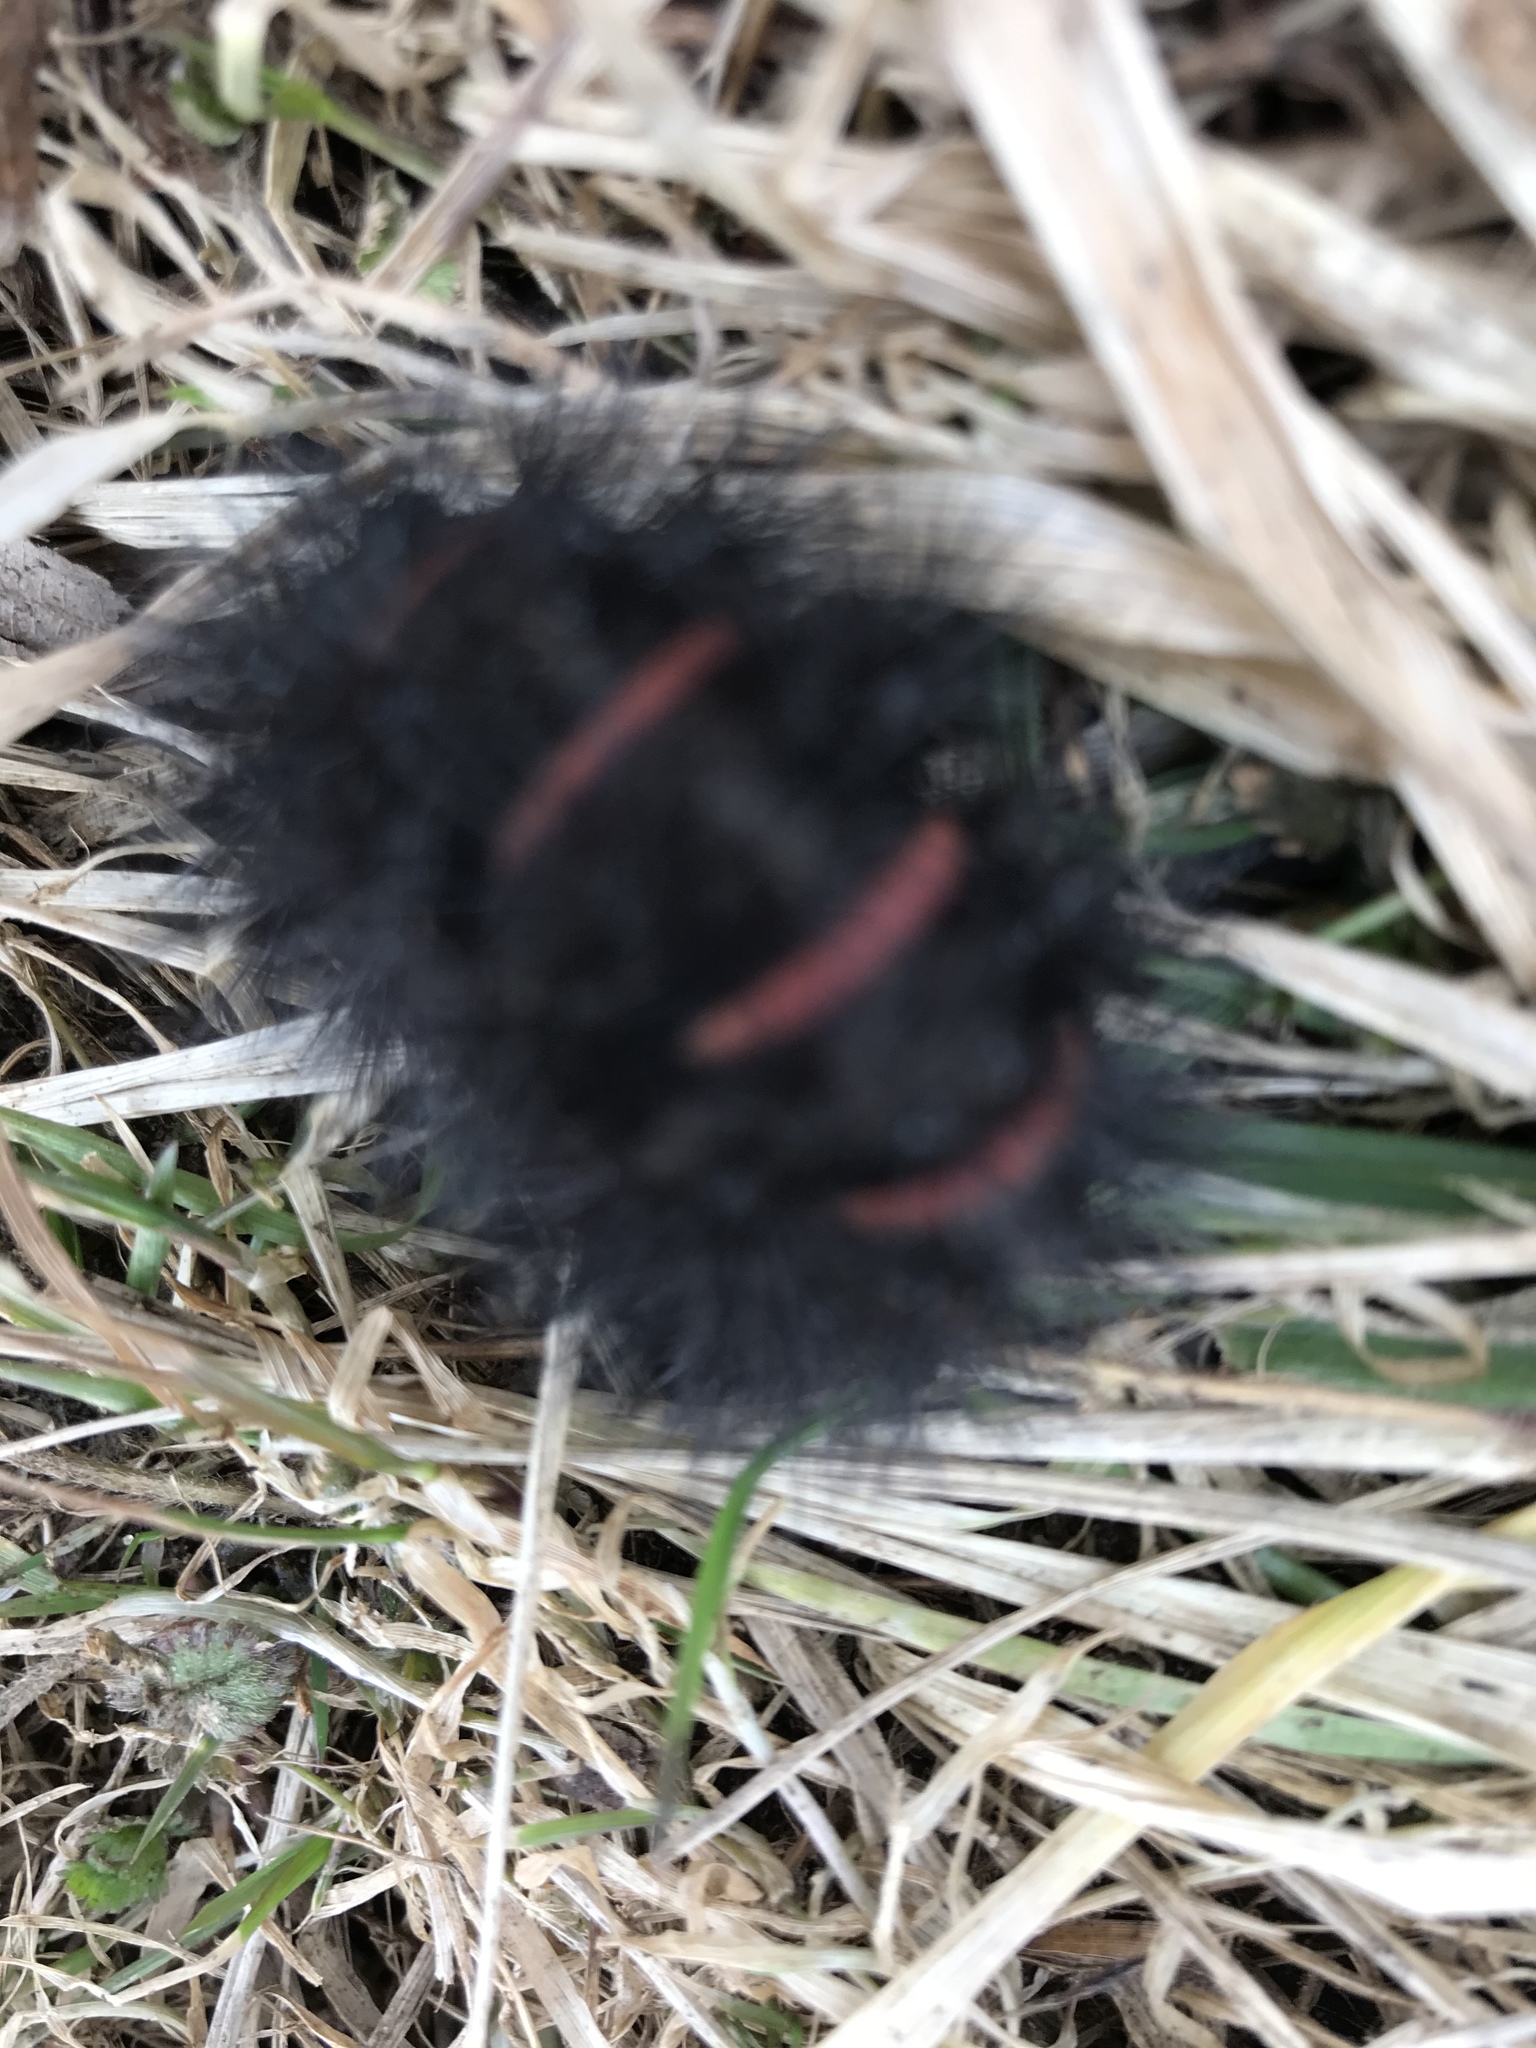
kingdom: Animalia
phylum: Arthropoda
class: Insecta
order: Lepidoptera
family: Erebidae
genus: Hypercompe
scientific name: Hypercompe scribonia
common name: Giant leopard moth
